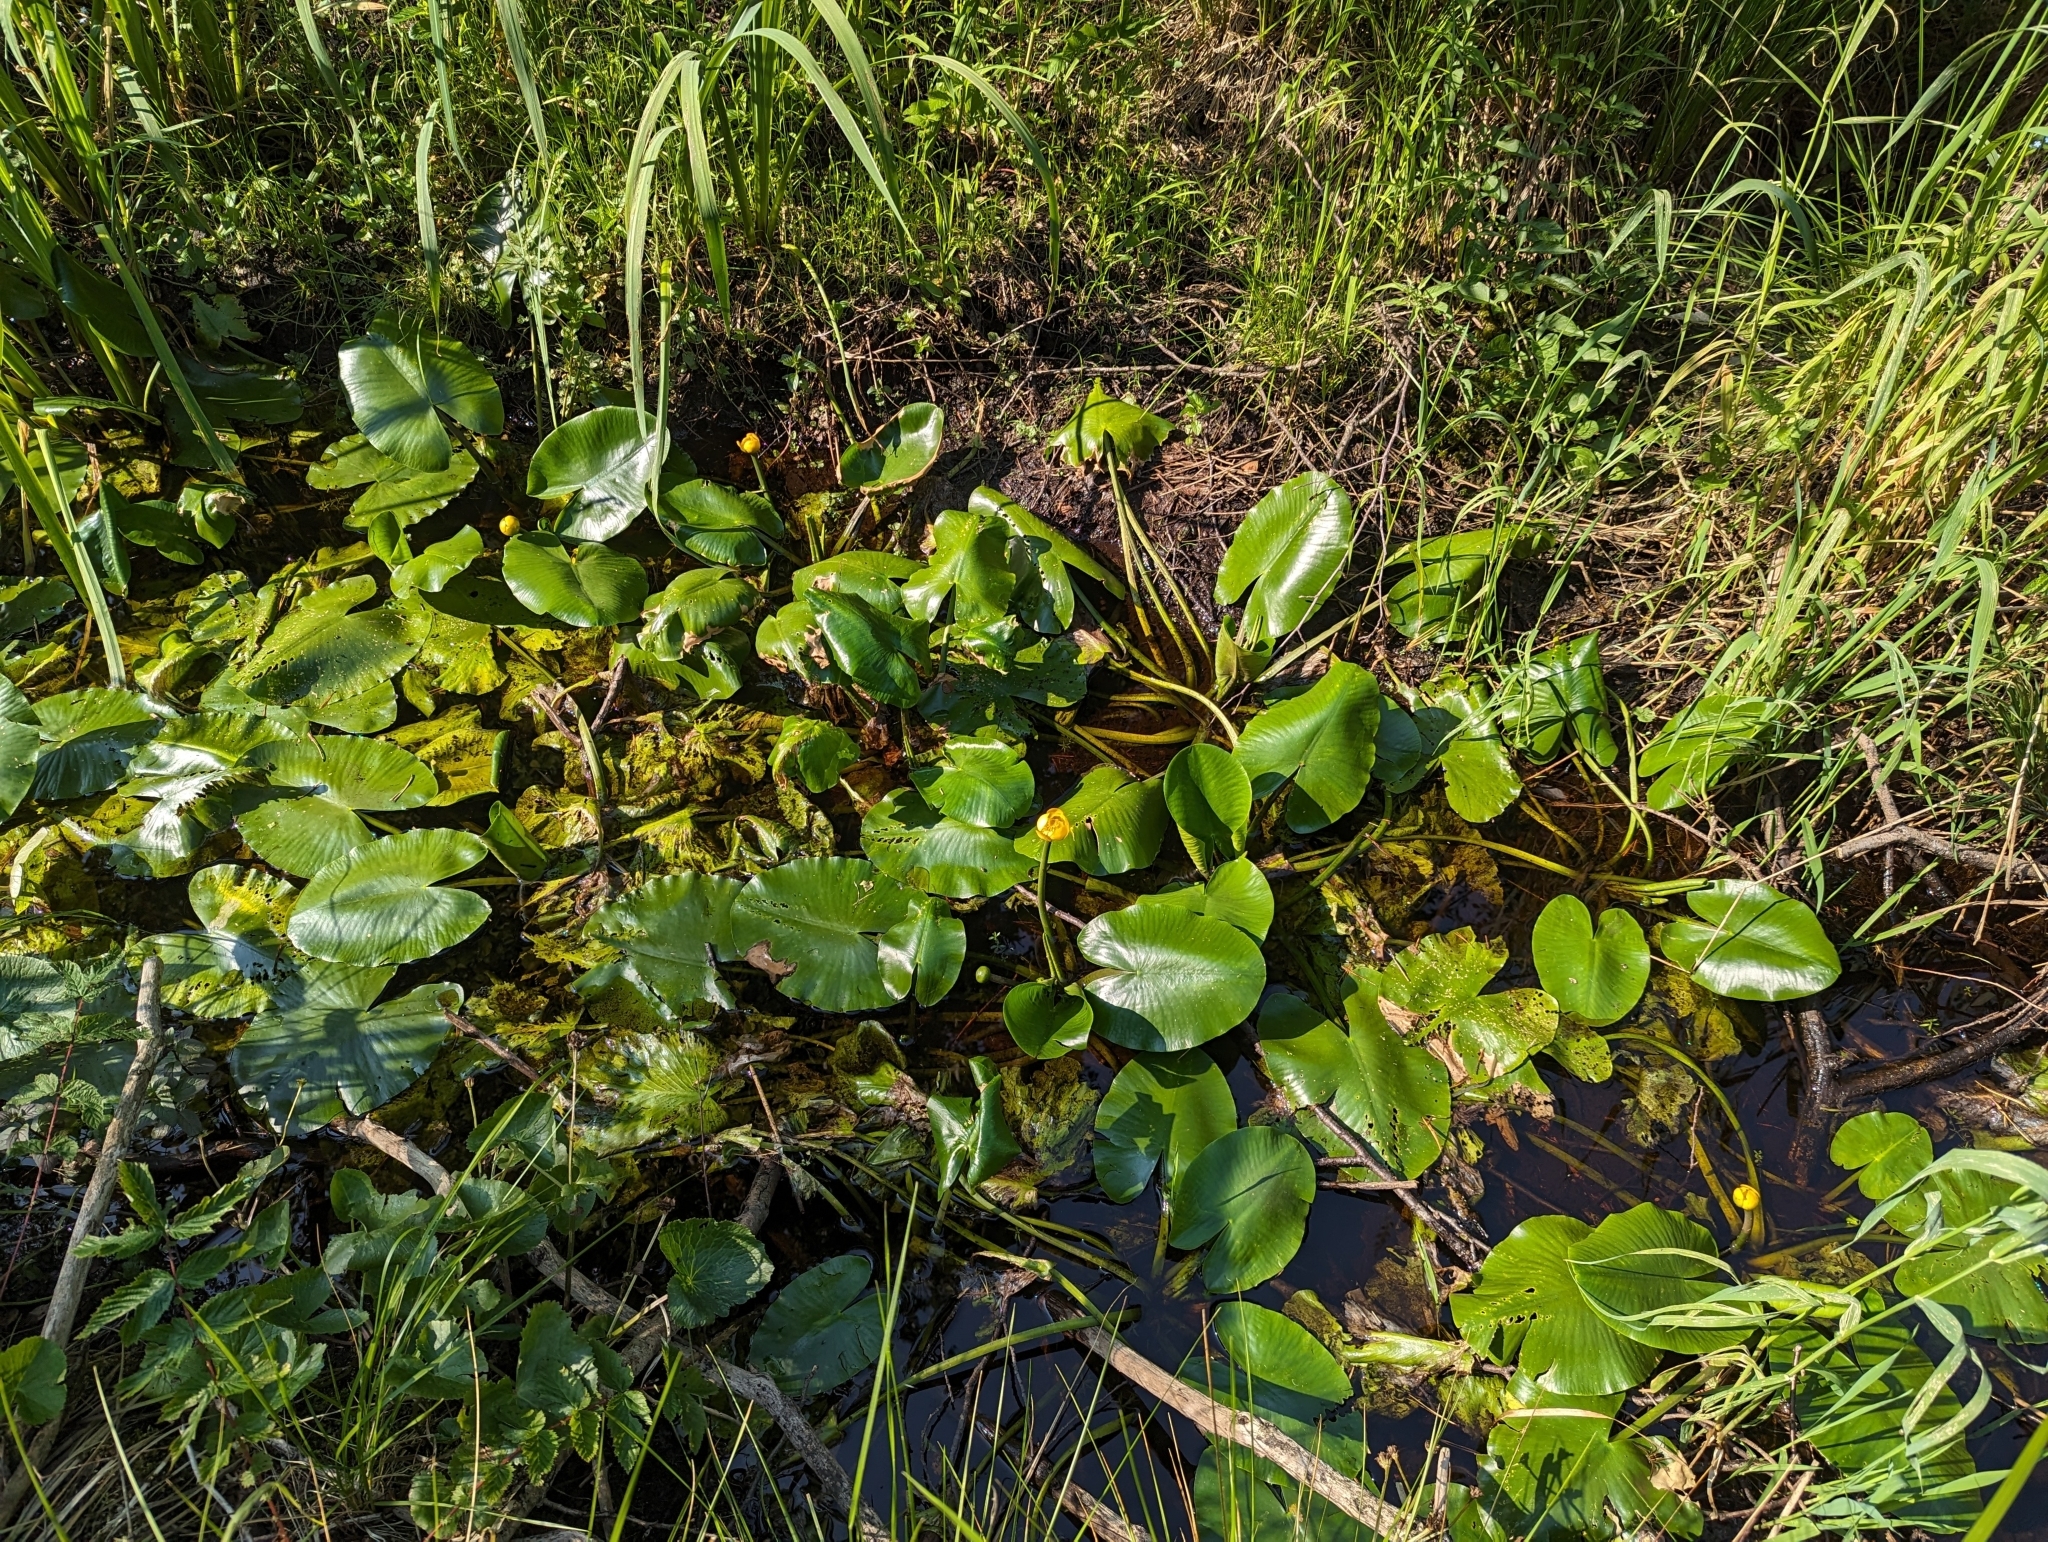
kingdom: Plantae
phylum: Tracheophyta
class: Magnoliopsida
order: Nymphaeales
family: Nymphaeaceae
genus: Nuphar
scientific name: Nuphar lutea
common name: Yellow water-lily
